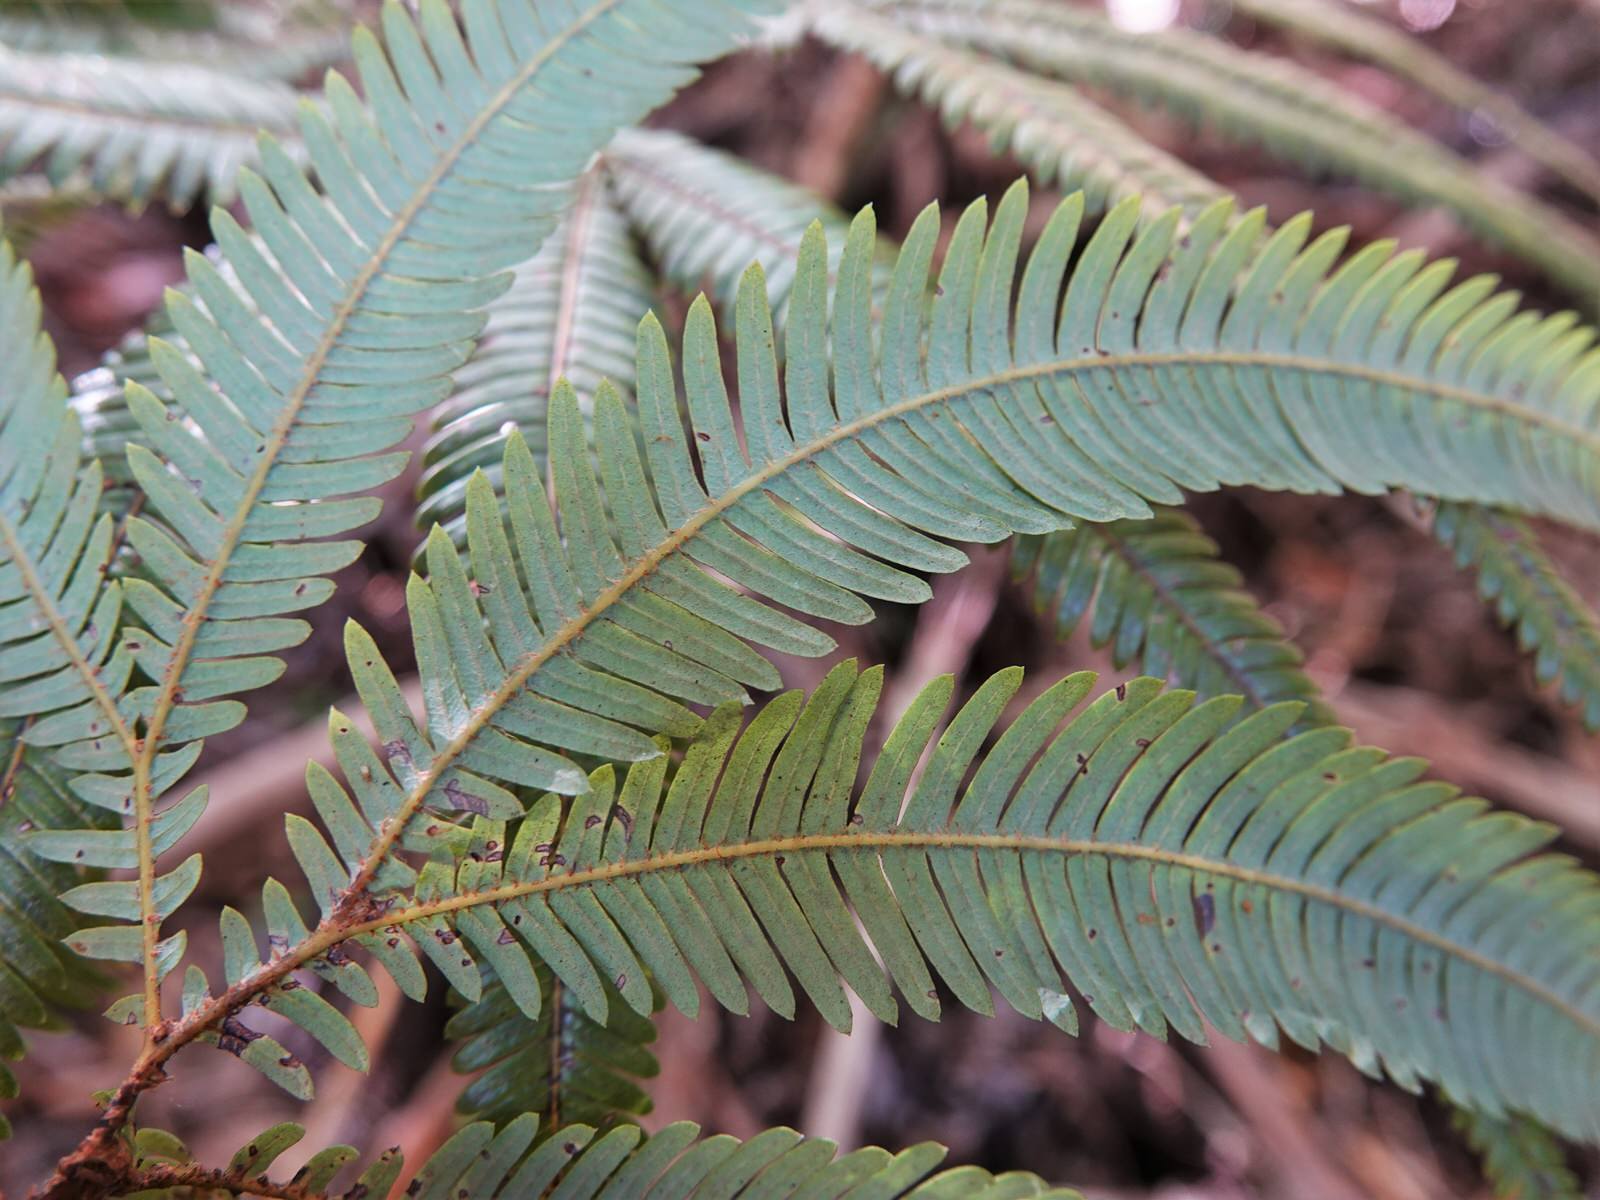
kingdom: Plantae
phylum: Tracheophyta
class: Polypodiopsida
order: Gleicheniales
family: Gleicheniaceae
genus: Sticherus
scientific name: Sticherus cunninghamii
